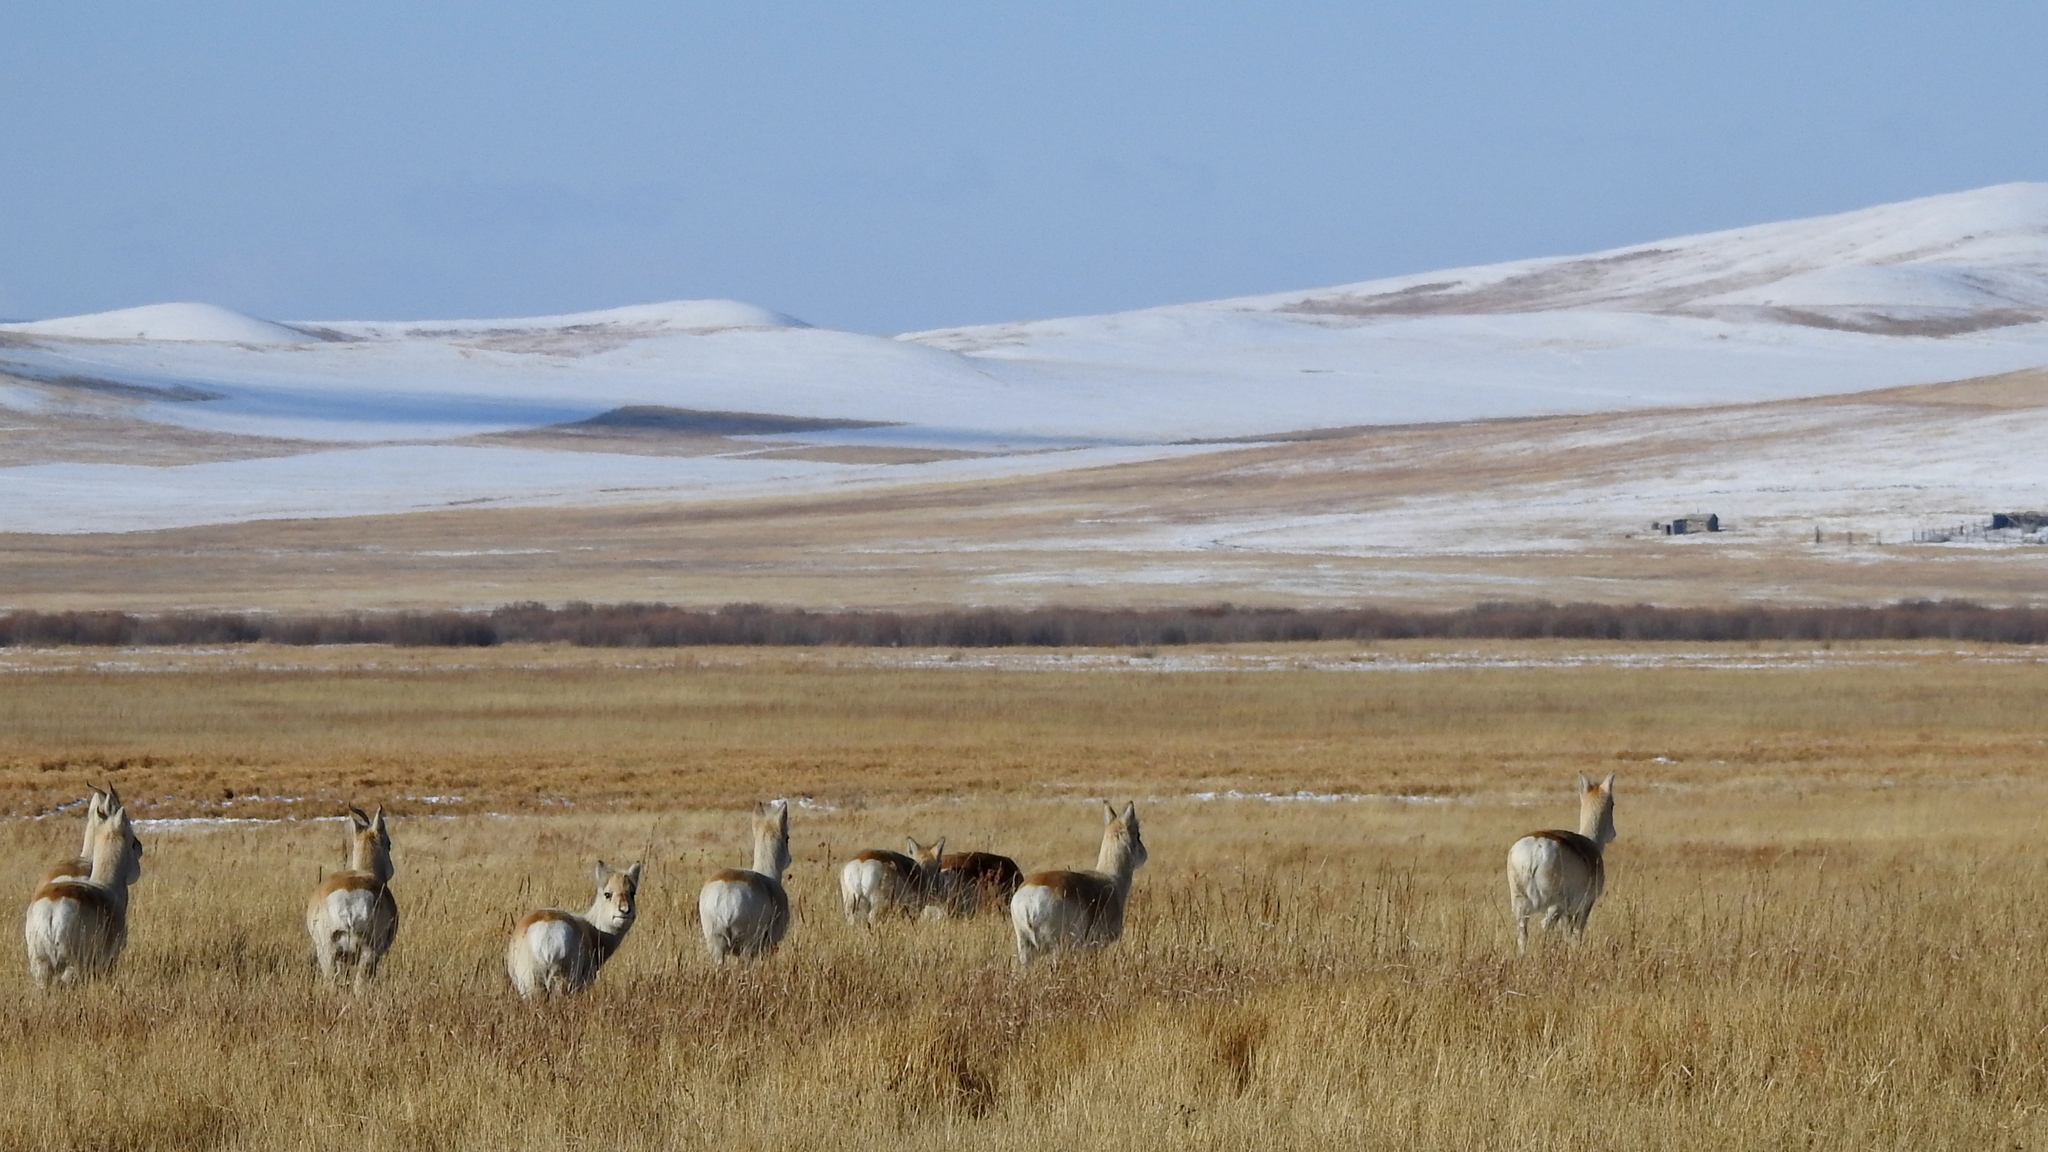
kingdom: Animalia
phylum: Chordata
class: Mammalia
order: Artiodactyla
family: Bovidae
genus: Procapra
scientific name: Procapra gutturosa
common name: Mongolian gazelle
